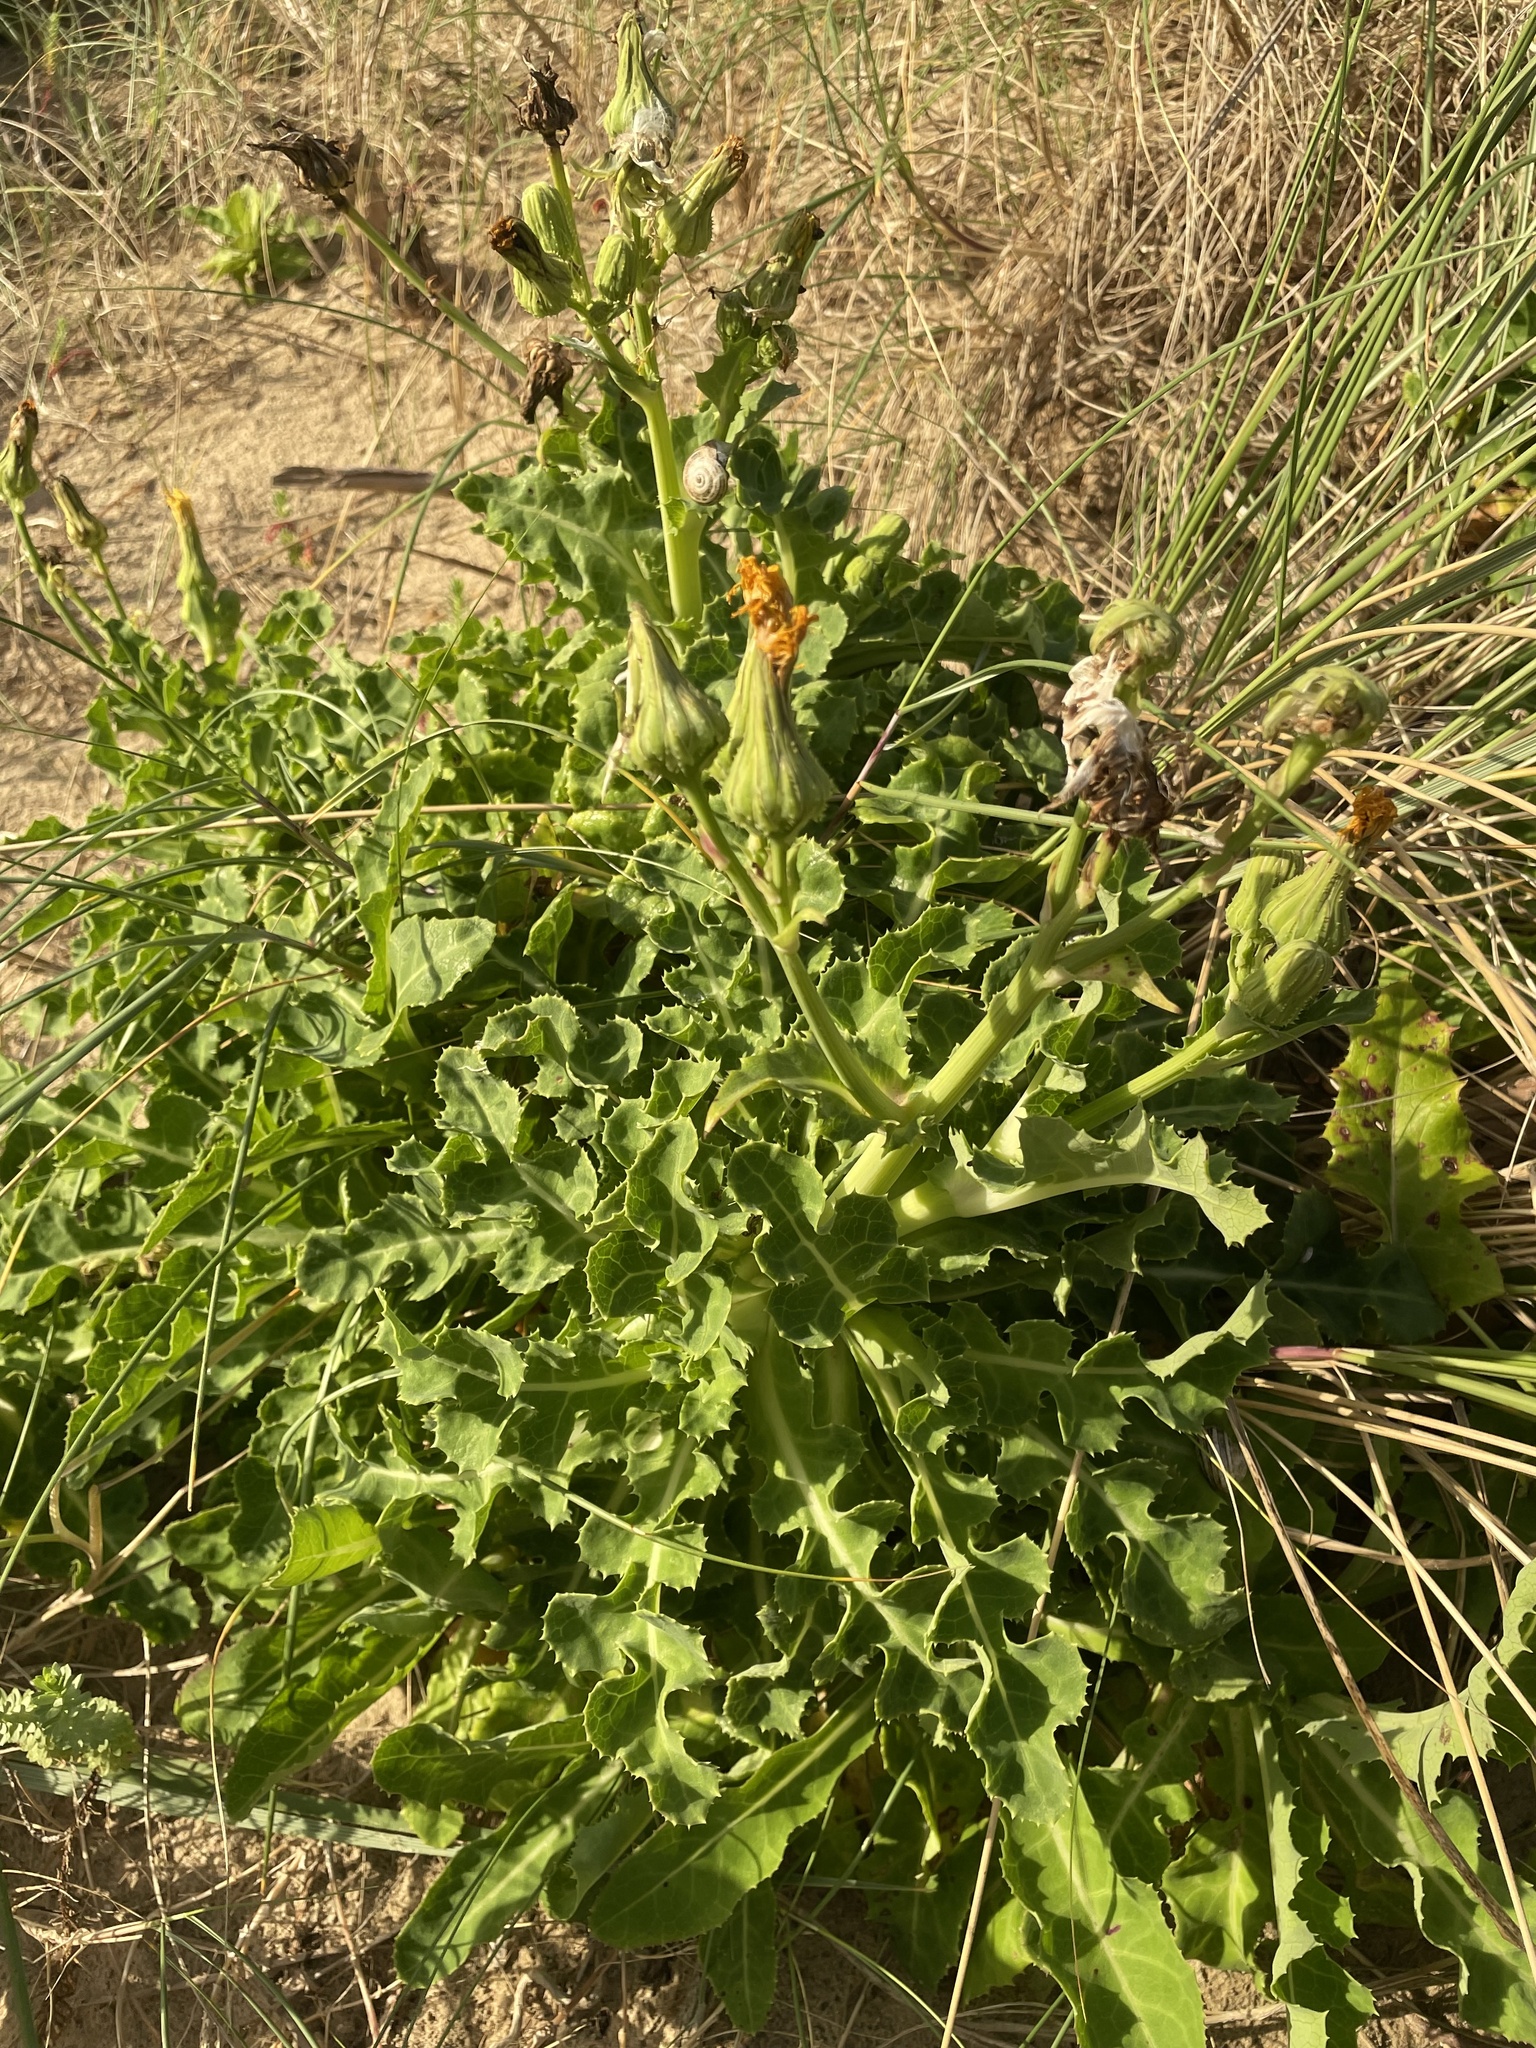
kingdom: Plantae
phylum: Tracheophyta
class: Magnoliopsida
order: Asterales
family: Asteraceae
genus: Sonchus
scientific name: Sonchus megalocarpus
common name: Dune thistle
